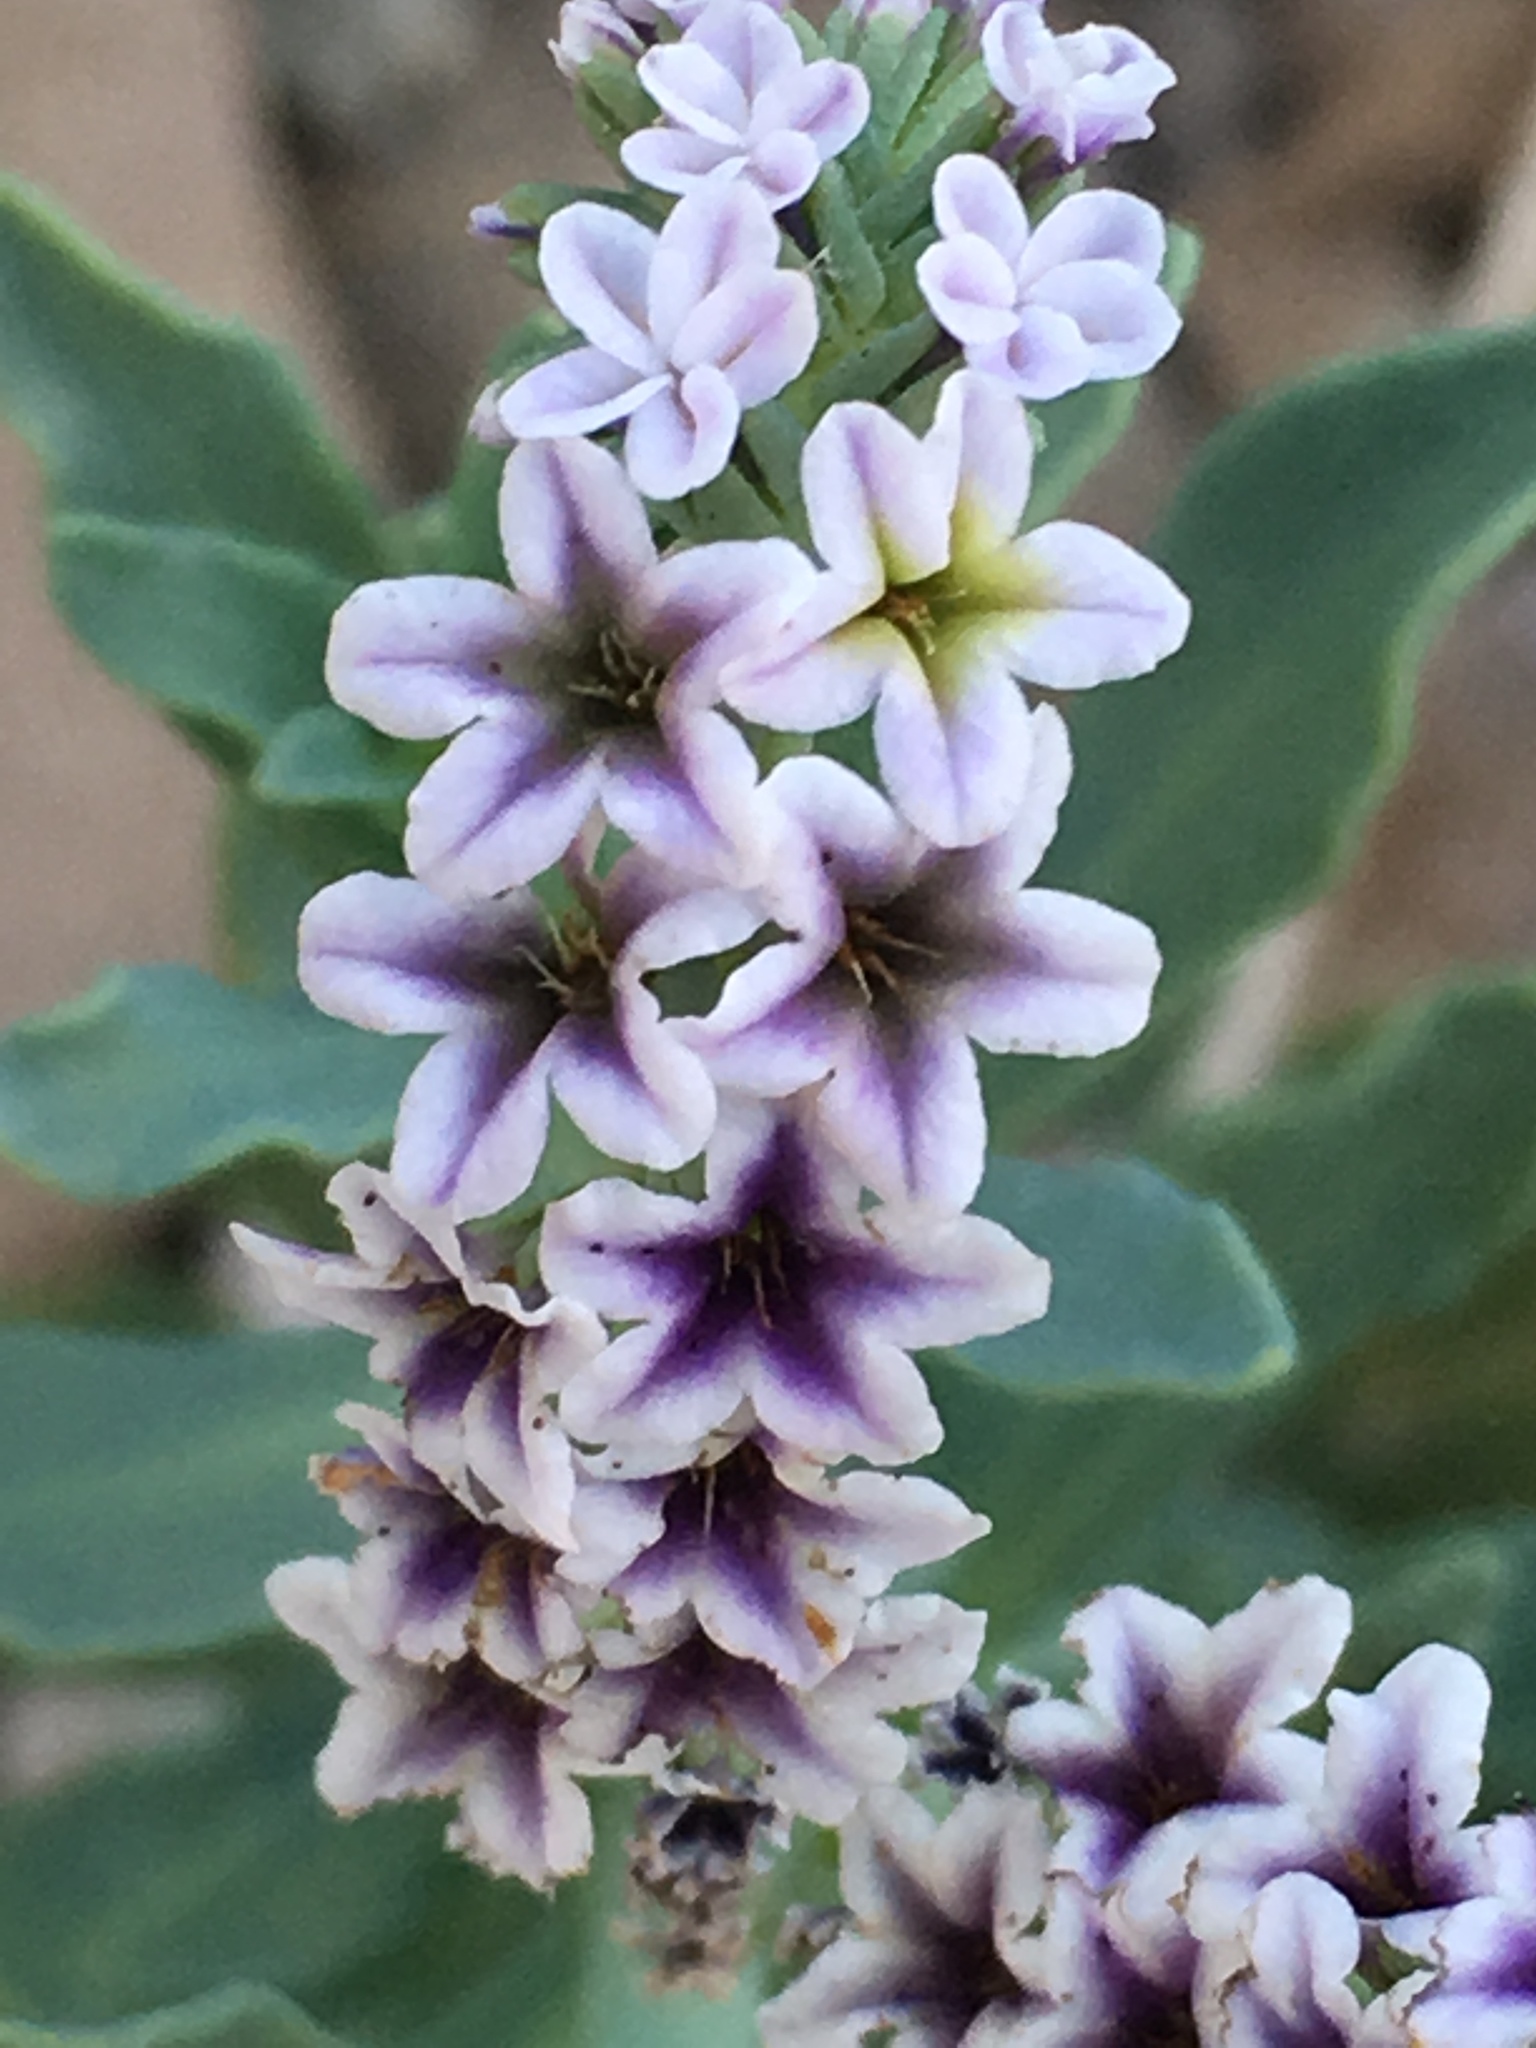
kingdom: Plantae
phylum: Tracheophyta
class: Magnoliopsida
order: Boraginales
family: Heliotropiaceae
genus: Heliotropium
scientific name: Heliotropium curassavicum
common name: Seaside heliotrope
